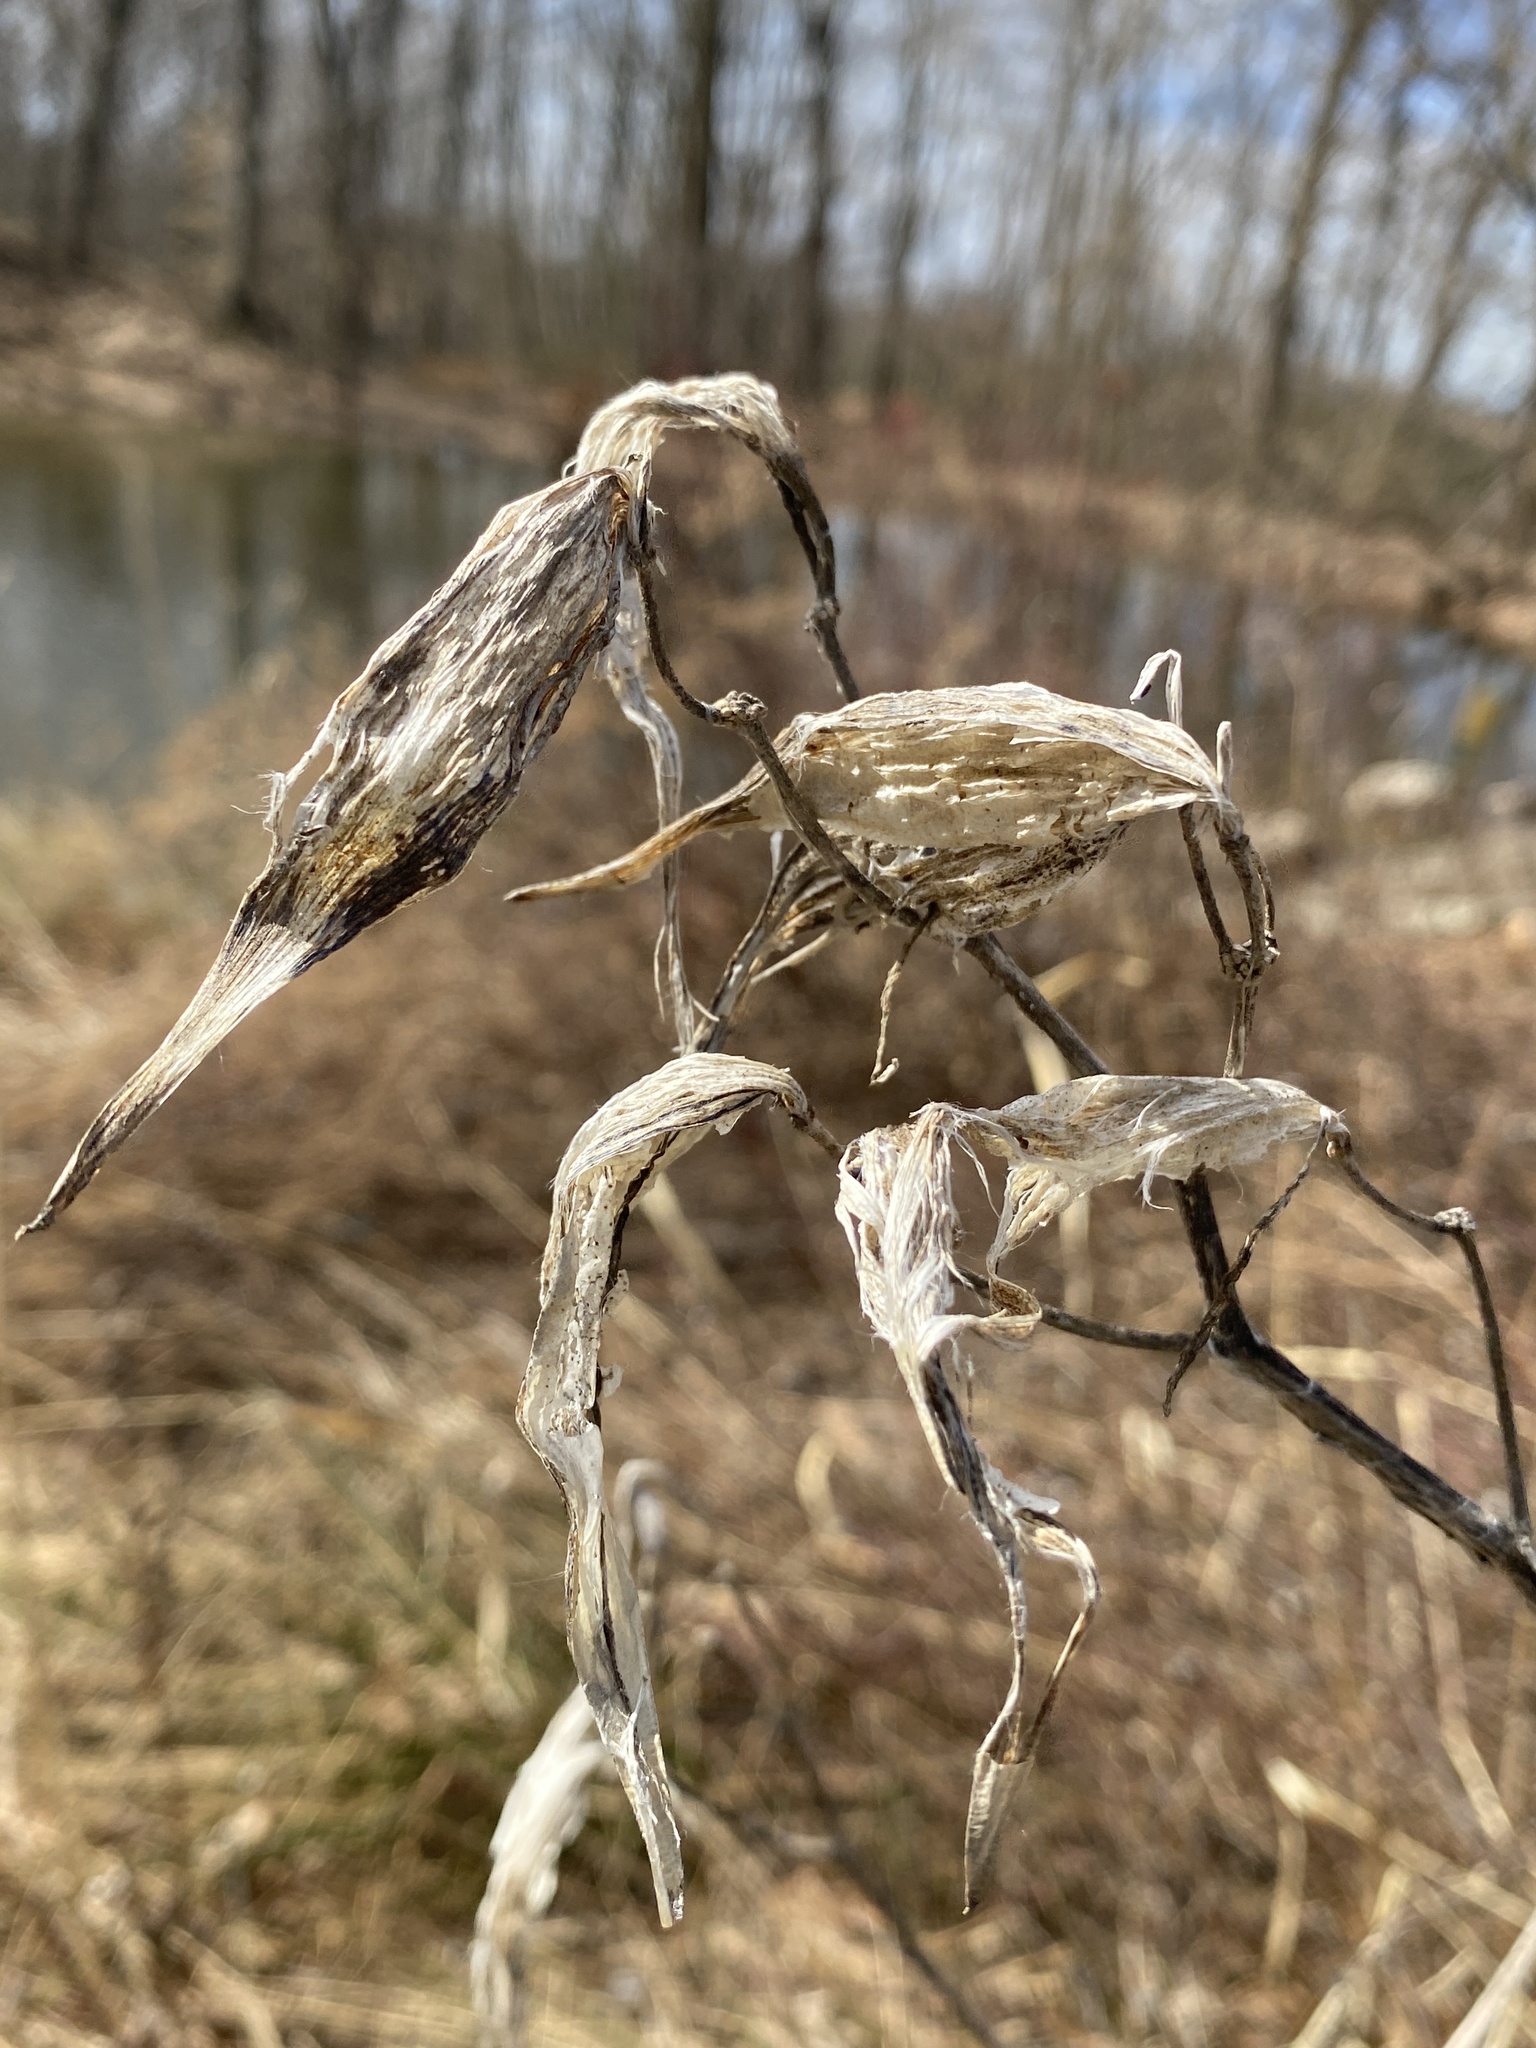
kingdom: Plantae
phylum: Tracheophyta
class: Magnoliopsida
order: Gentianales
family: Apocynaceae
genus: Asclepias
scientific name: Asclepias incarnata
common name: Swamp milkweed
